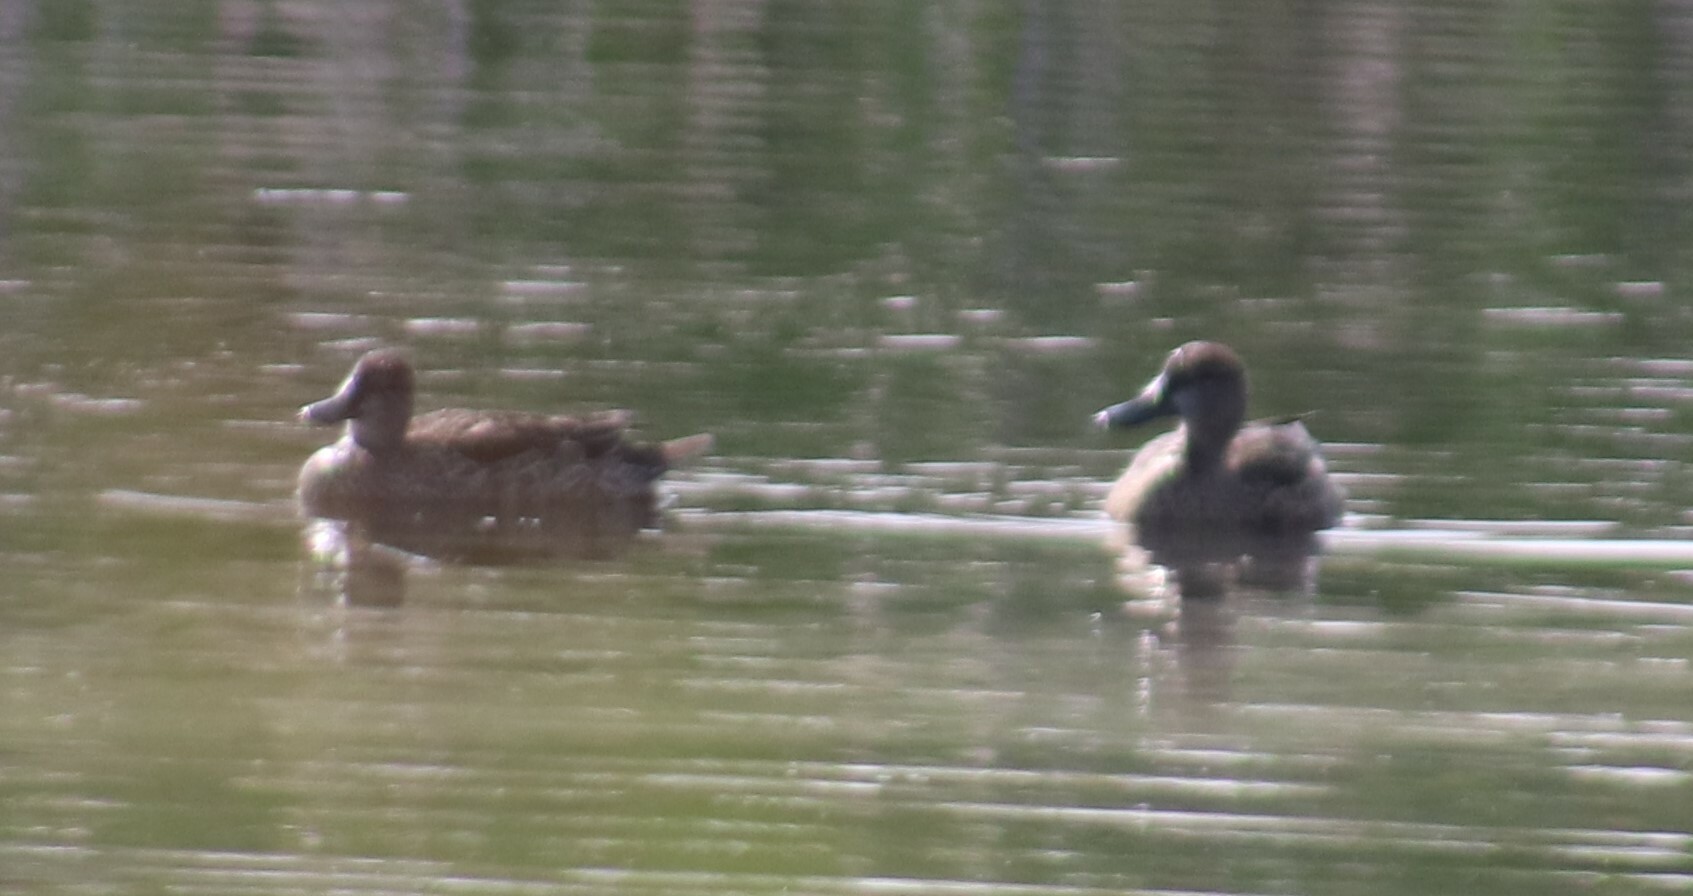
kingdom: Animalia
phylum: Chordata
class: Aves
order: Anseriformes
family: Anatidae
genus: Spatula
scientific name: Spatula discors
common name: Blue-winged teal
